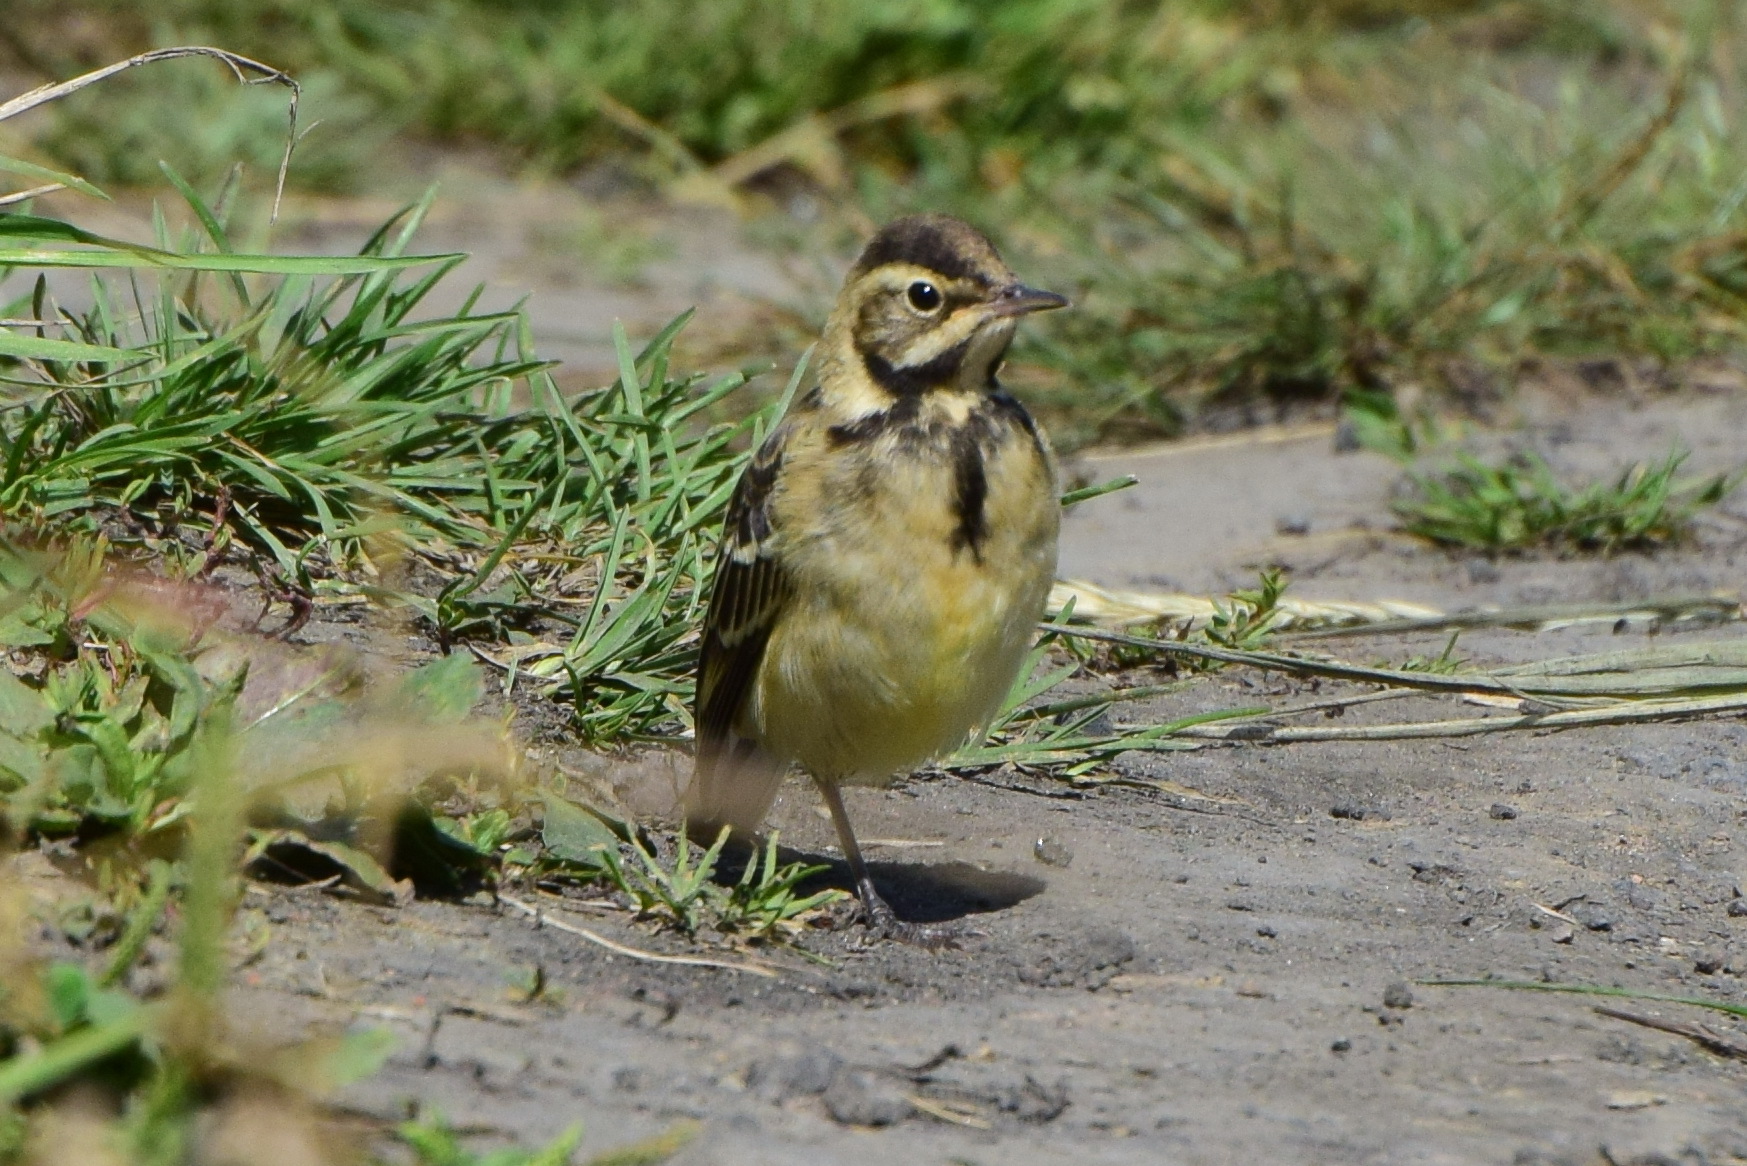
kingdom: Animalia
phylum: Chordata
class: Aves
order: Passeriformes
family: Motacillidae
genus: Motacilla
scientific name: Motacilla citreola
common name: Citrine wagtail
